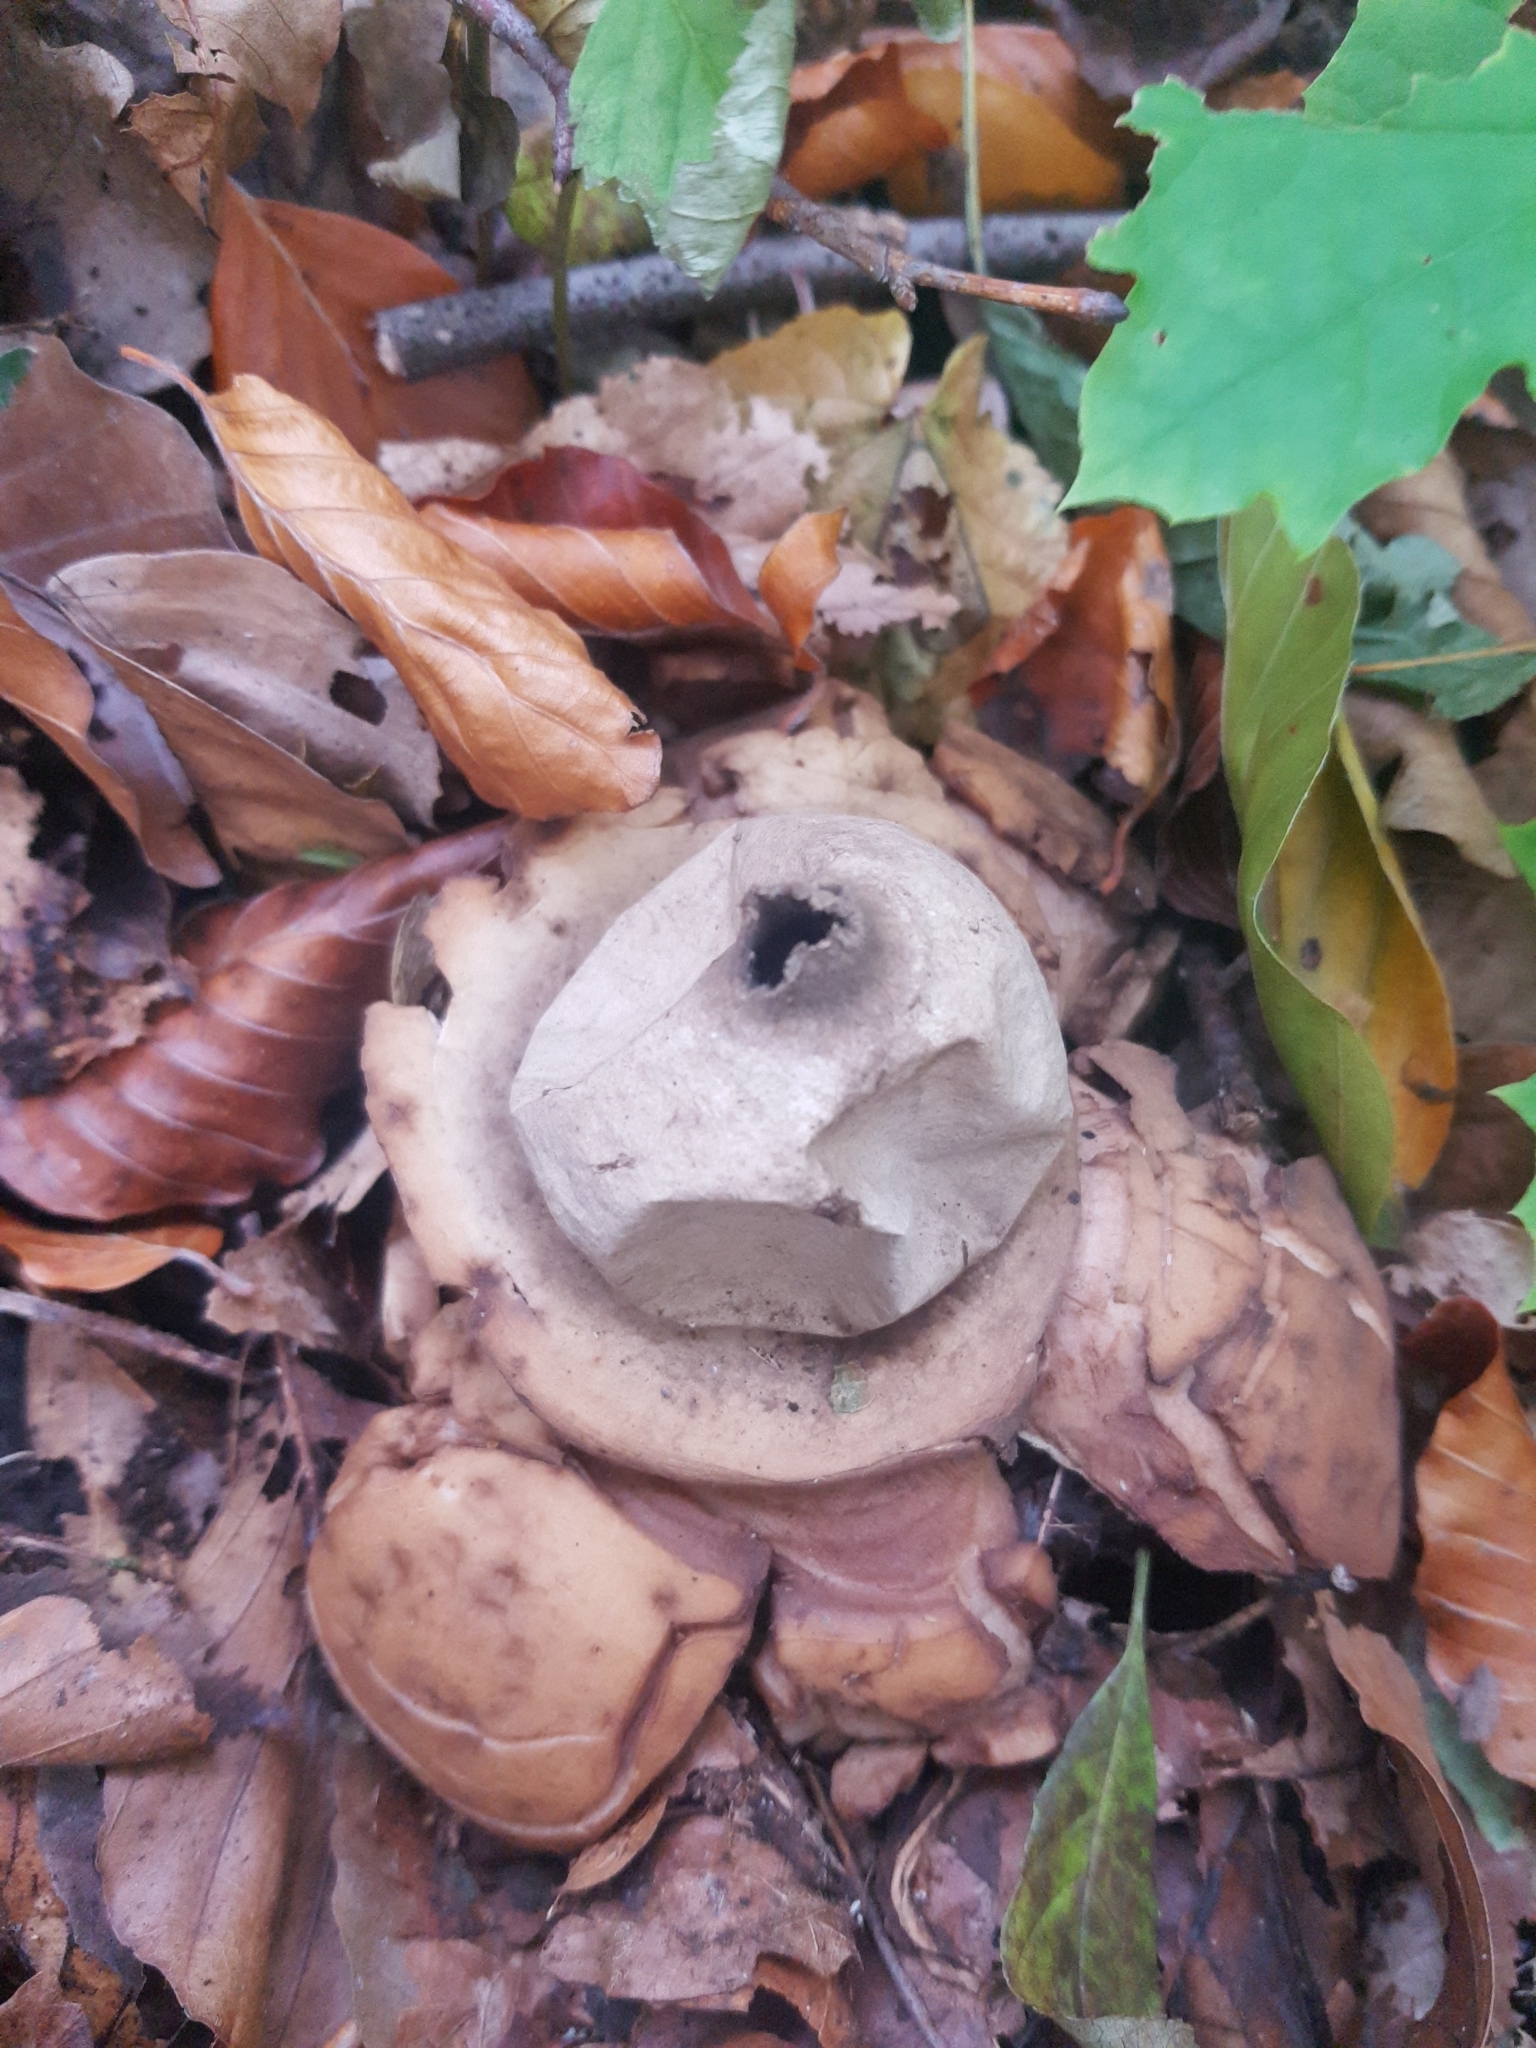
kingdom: Fungi
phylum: Basidiomycota
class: Agaricomycetes
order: Geastrales
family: Geastraceae
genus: Geastrum
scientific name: Geastrum triplex
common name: Collared earthstar
